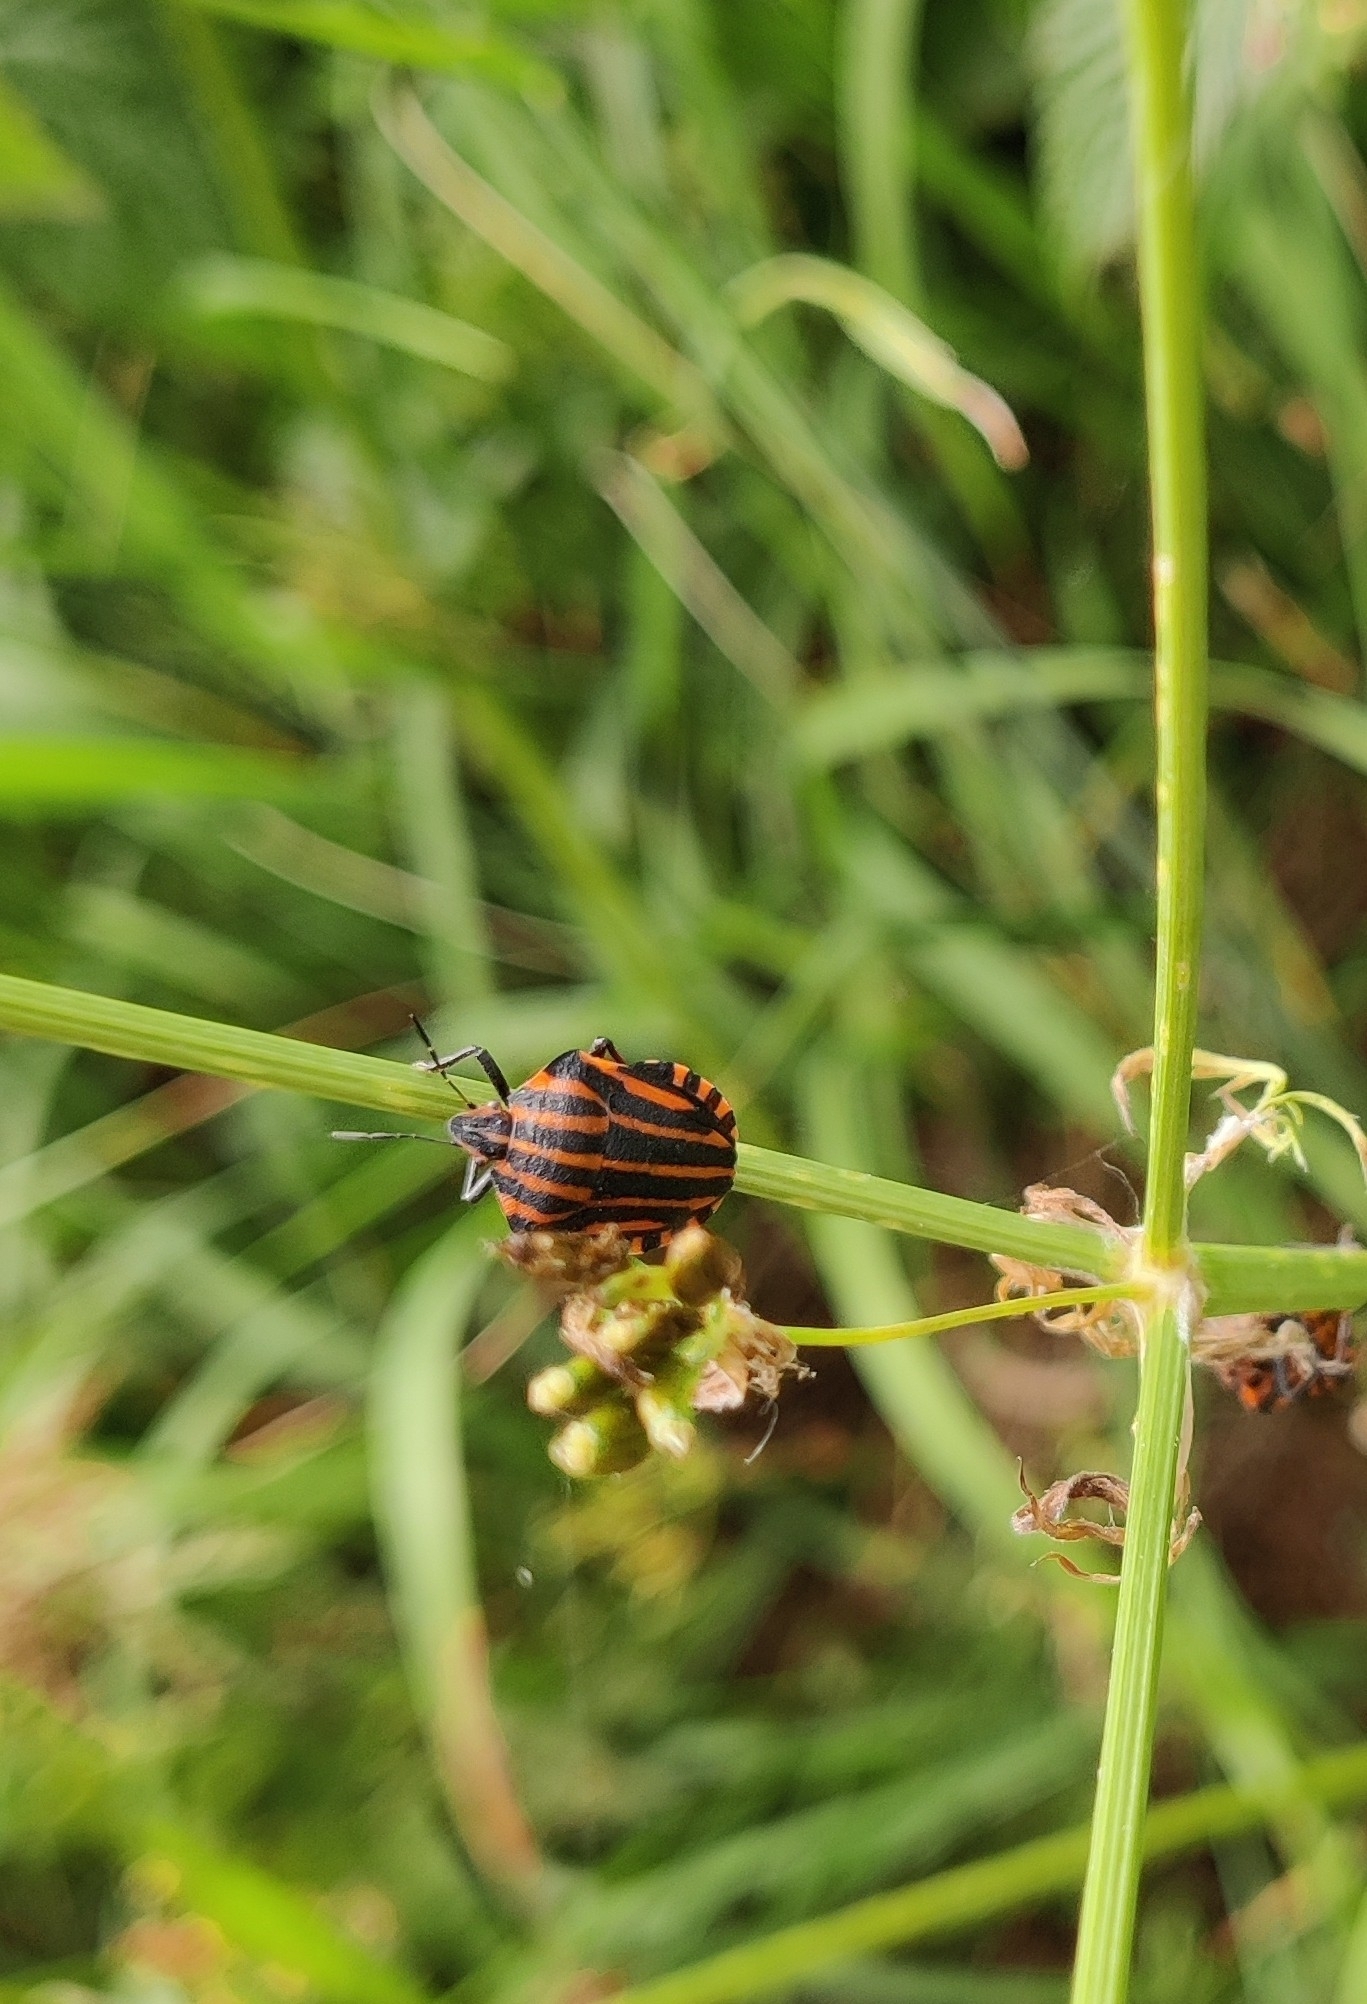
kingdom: Animalia
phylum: Arthropoda
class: Insecta
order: Hemiptera
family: Pentatomidae
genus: Graphosoma
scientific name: Graphosoma italicum
